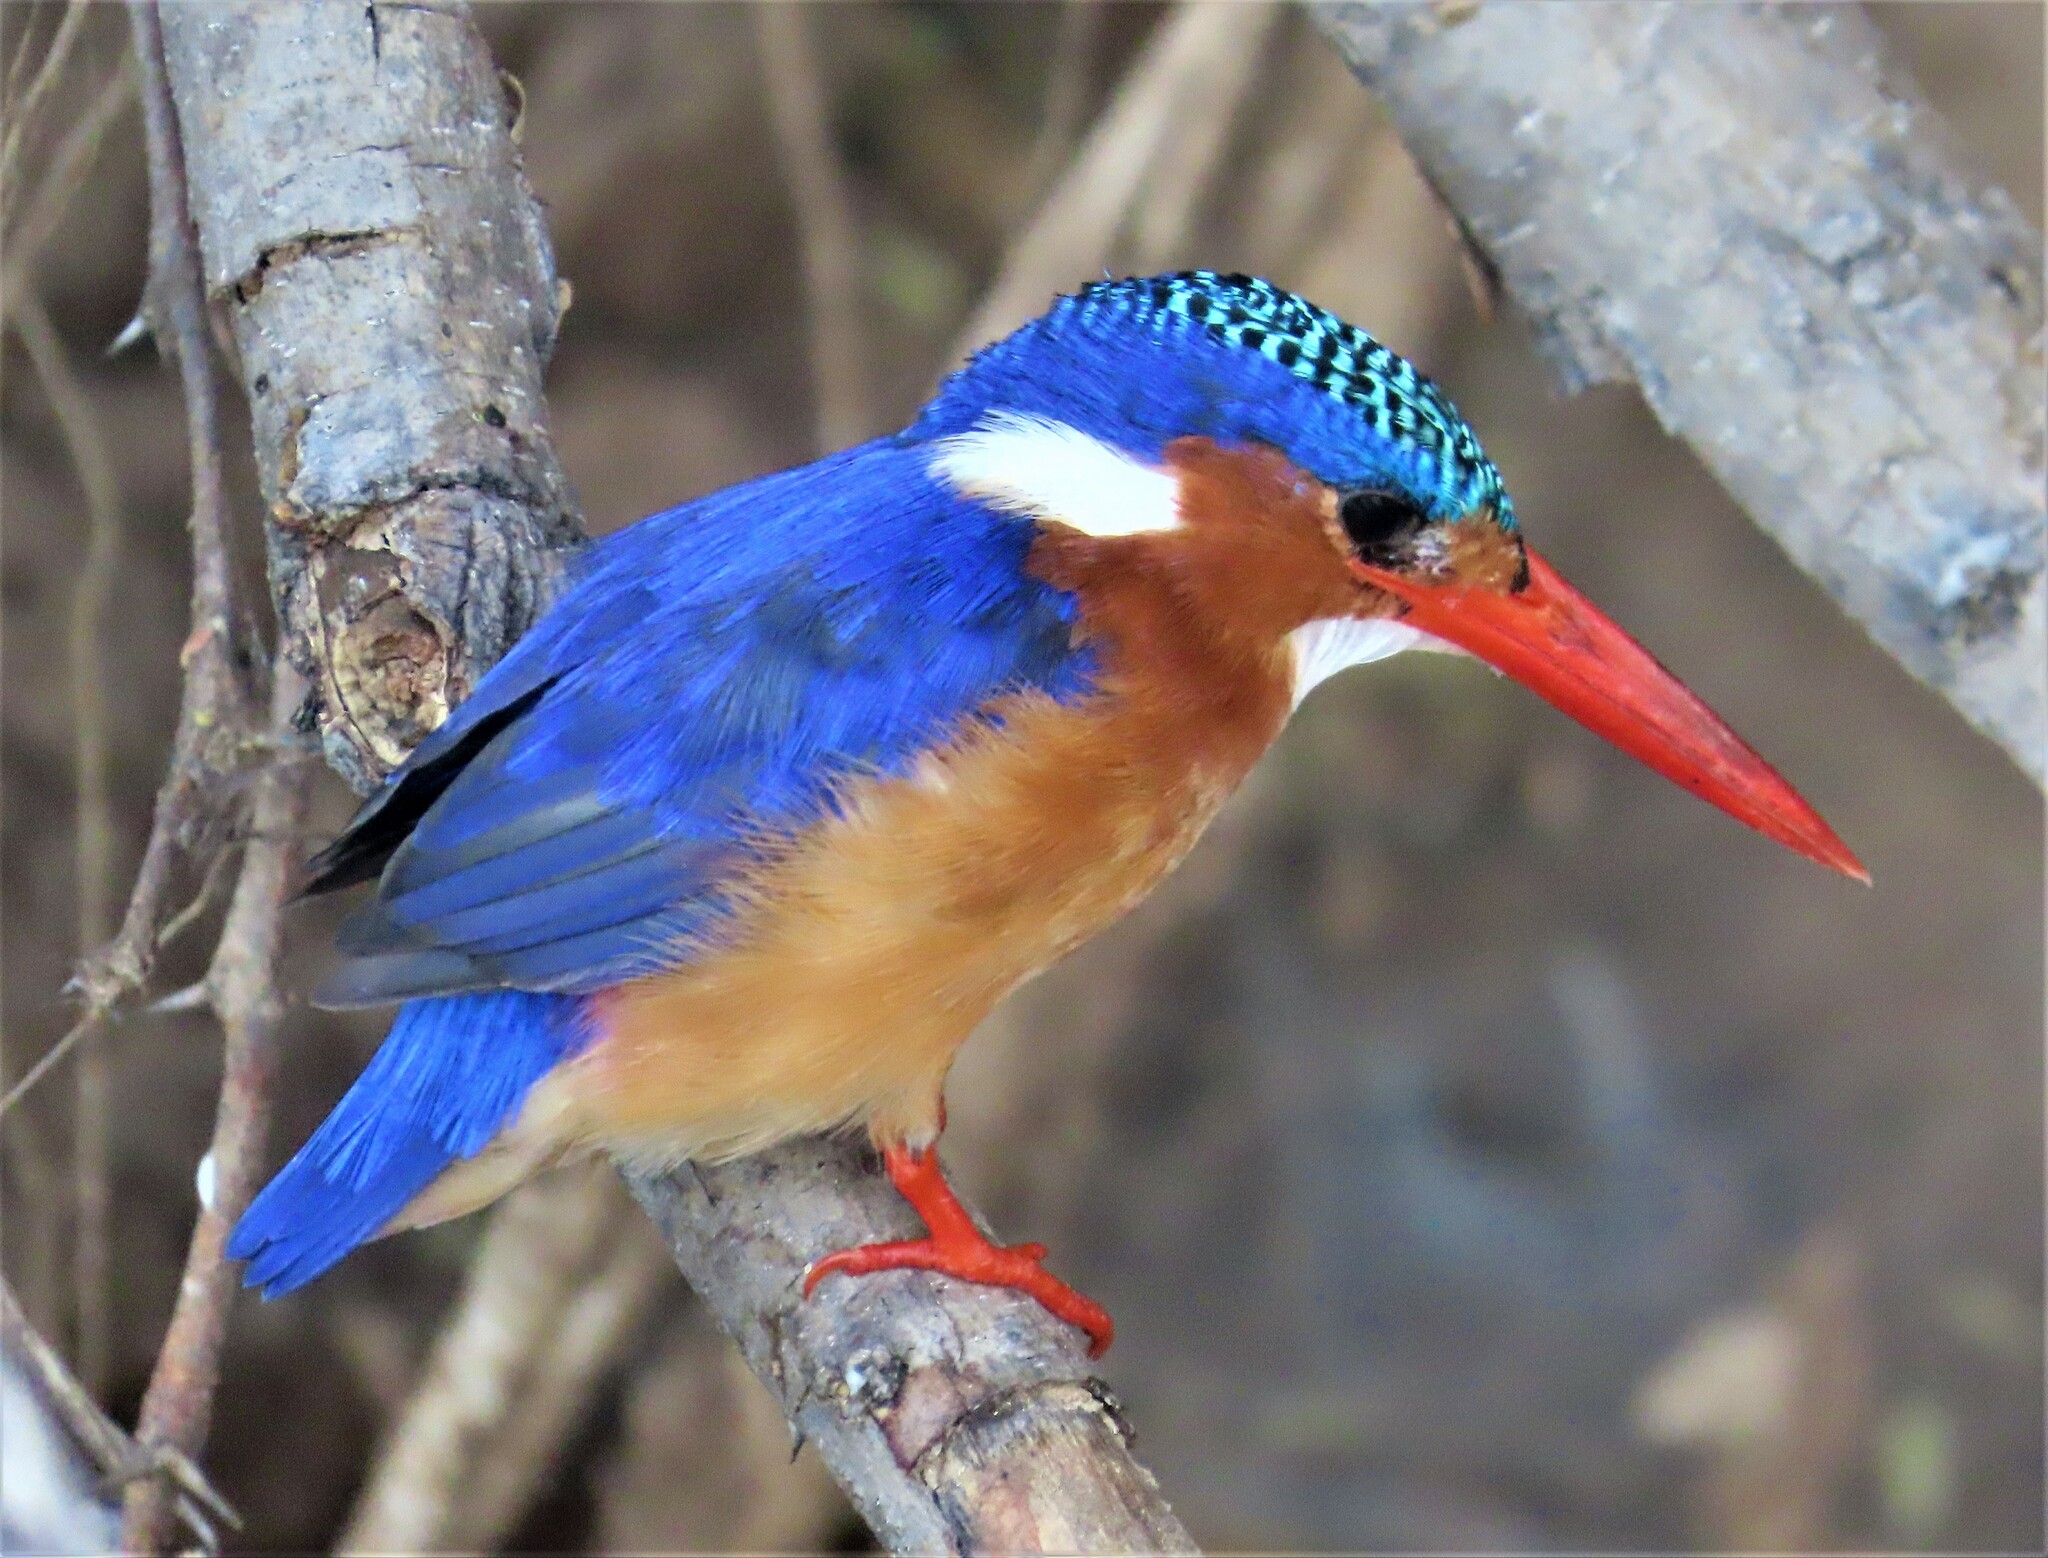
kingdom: Animalia
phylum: Chordata
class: Aves
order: Coraciiformes
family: Alcedinidae
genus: Corythornis
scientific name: Corythornis cristatus
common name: Malachite kingfisher
